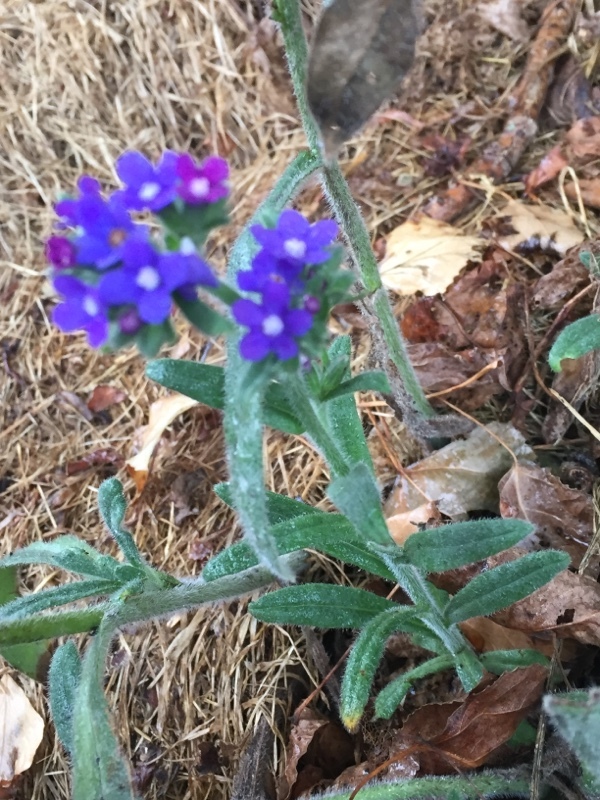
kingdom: Plantae
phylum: Tracheophyta
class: Magnoliopsida
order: Boraginales
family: Boraginaceae
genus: Anchusa
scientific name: Anchusa officinalis
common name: Alkanet
